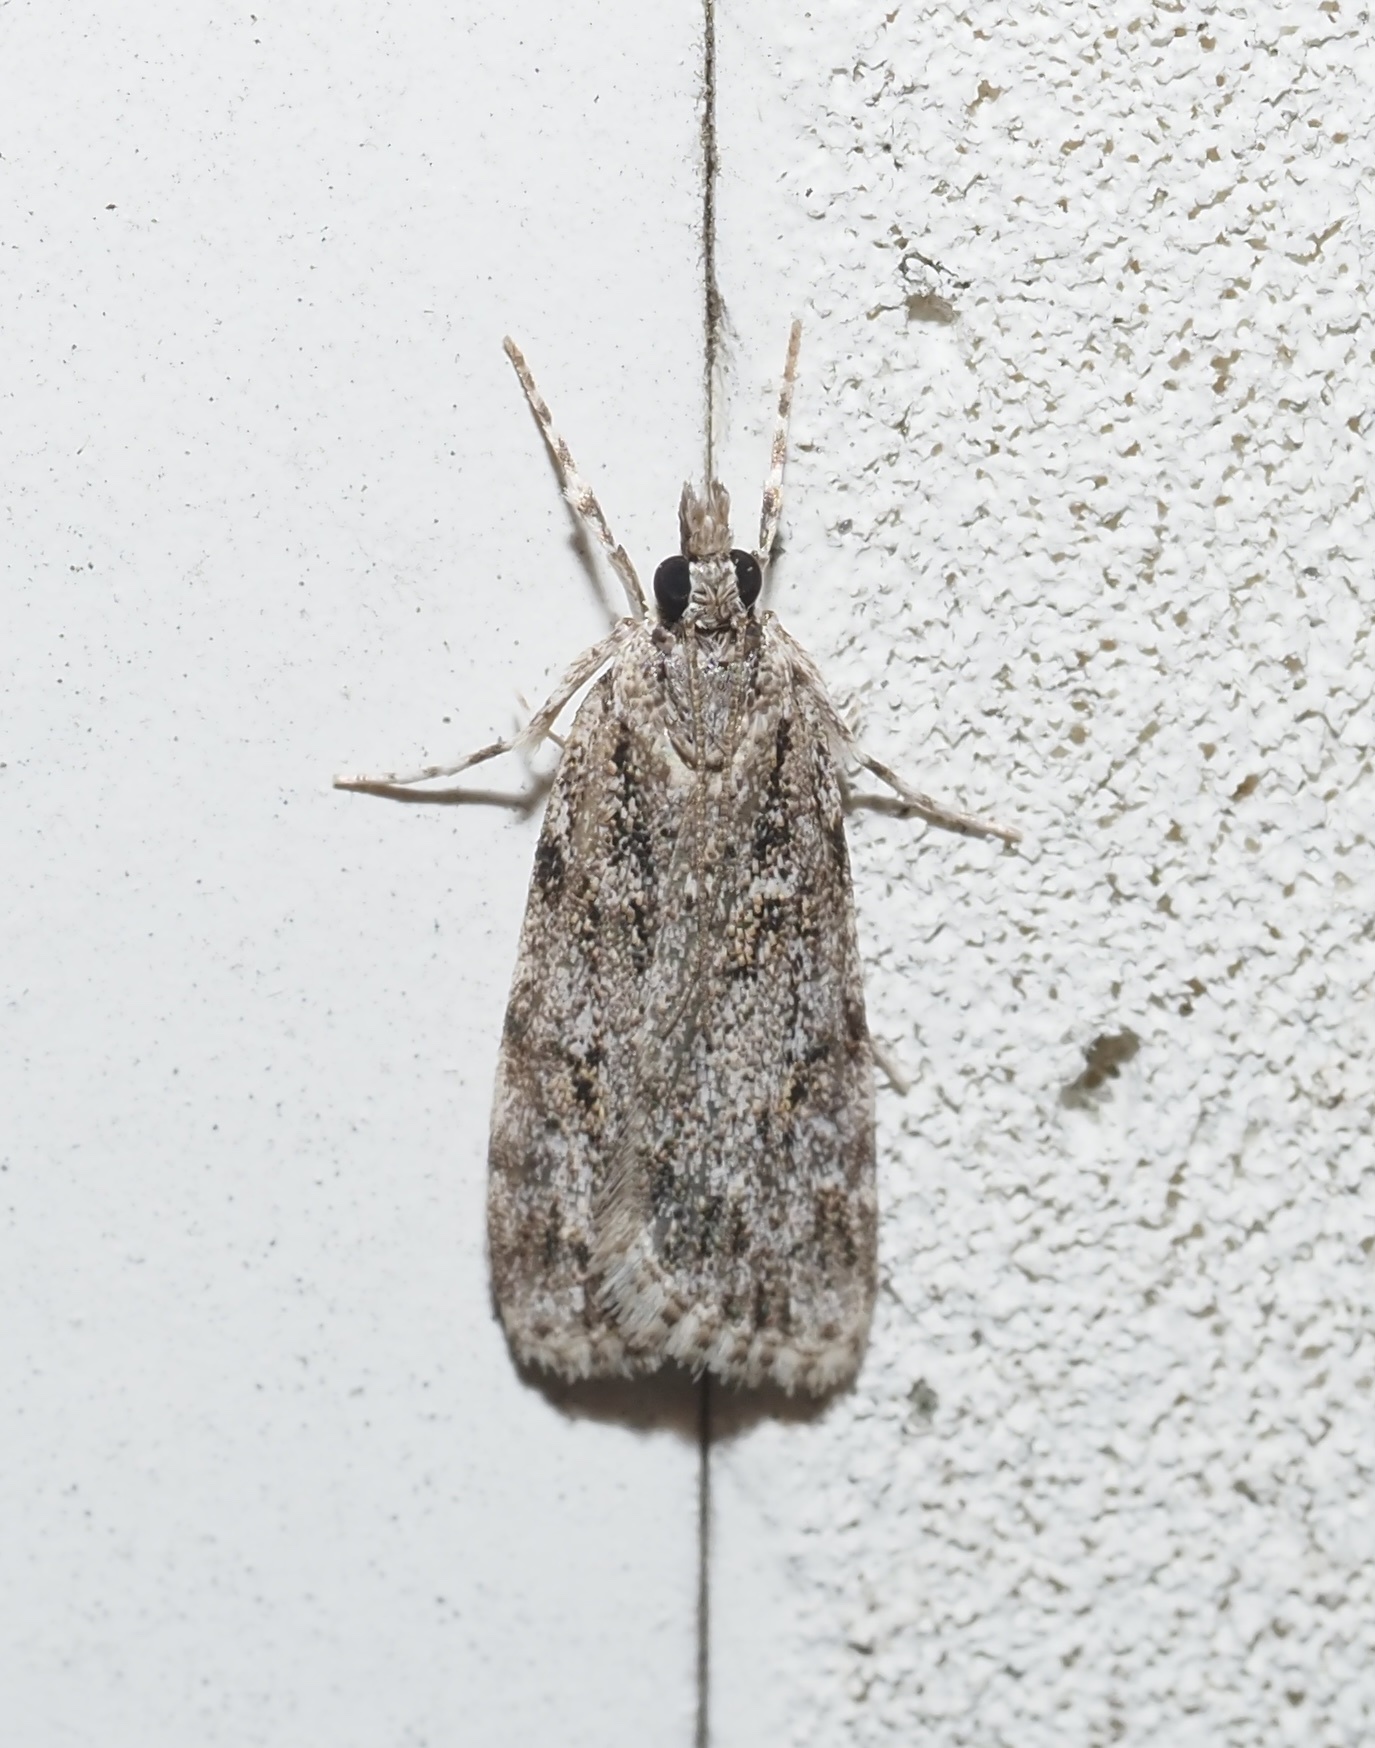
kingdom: Animalia
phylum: Arthropoda
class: Insecta
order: Lepidoptera
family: Crambidae
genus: Scoparia
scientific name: Scoparia biplagialis
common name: Double-striped scoparia moth
